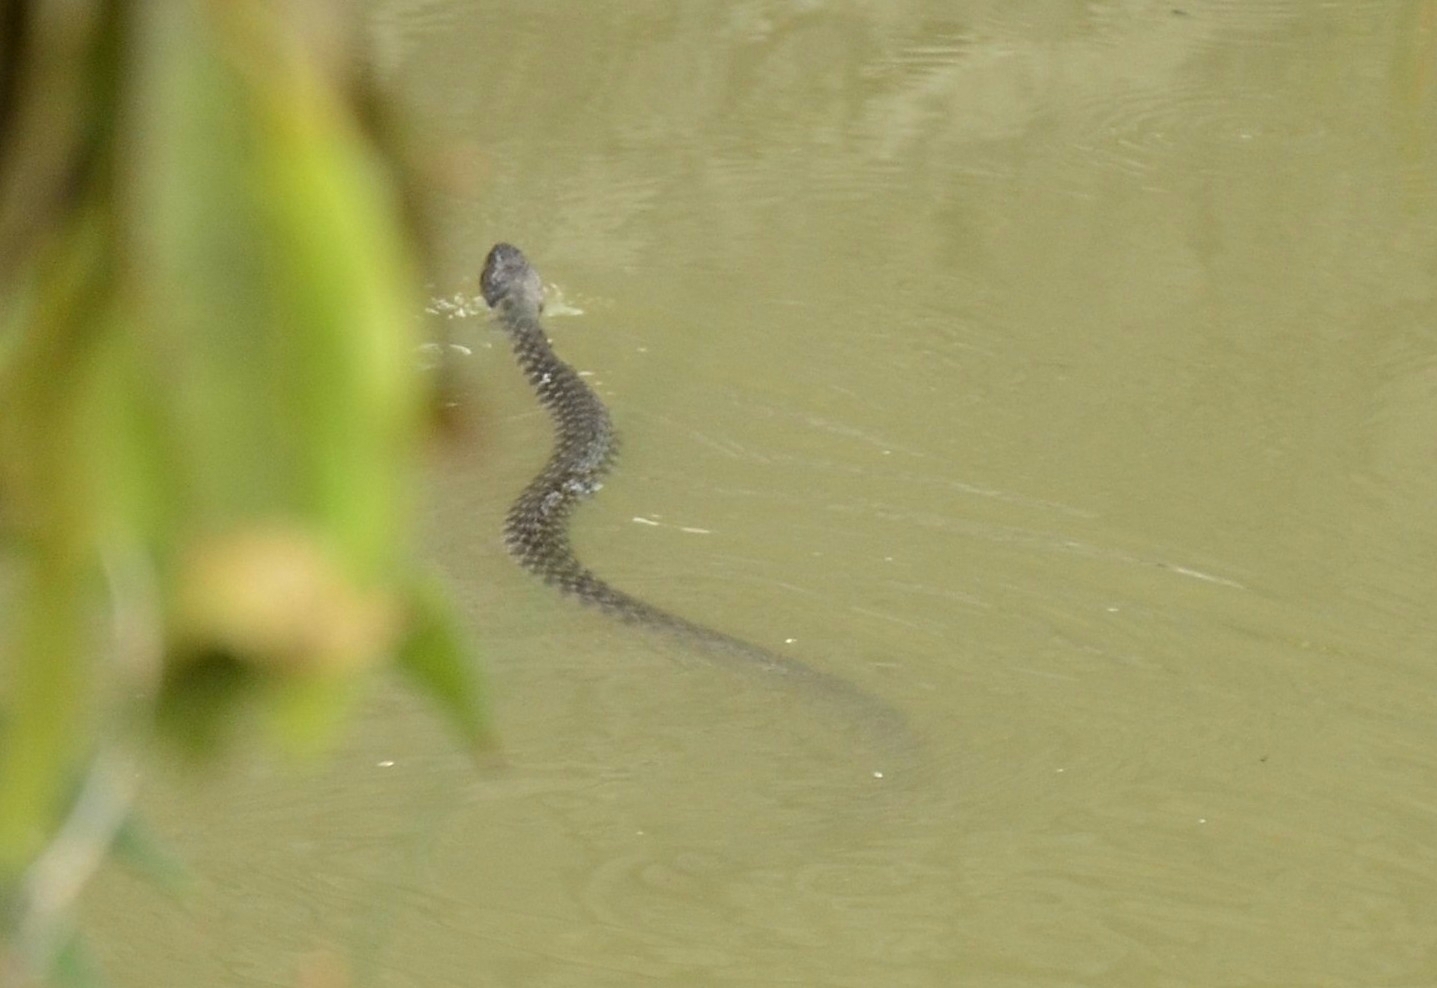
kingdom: Animalia
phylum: Chordata
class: Squamata
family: Colubridae
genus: Fowlea
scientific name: Fowlea piscator
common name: Asiatic water snake
